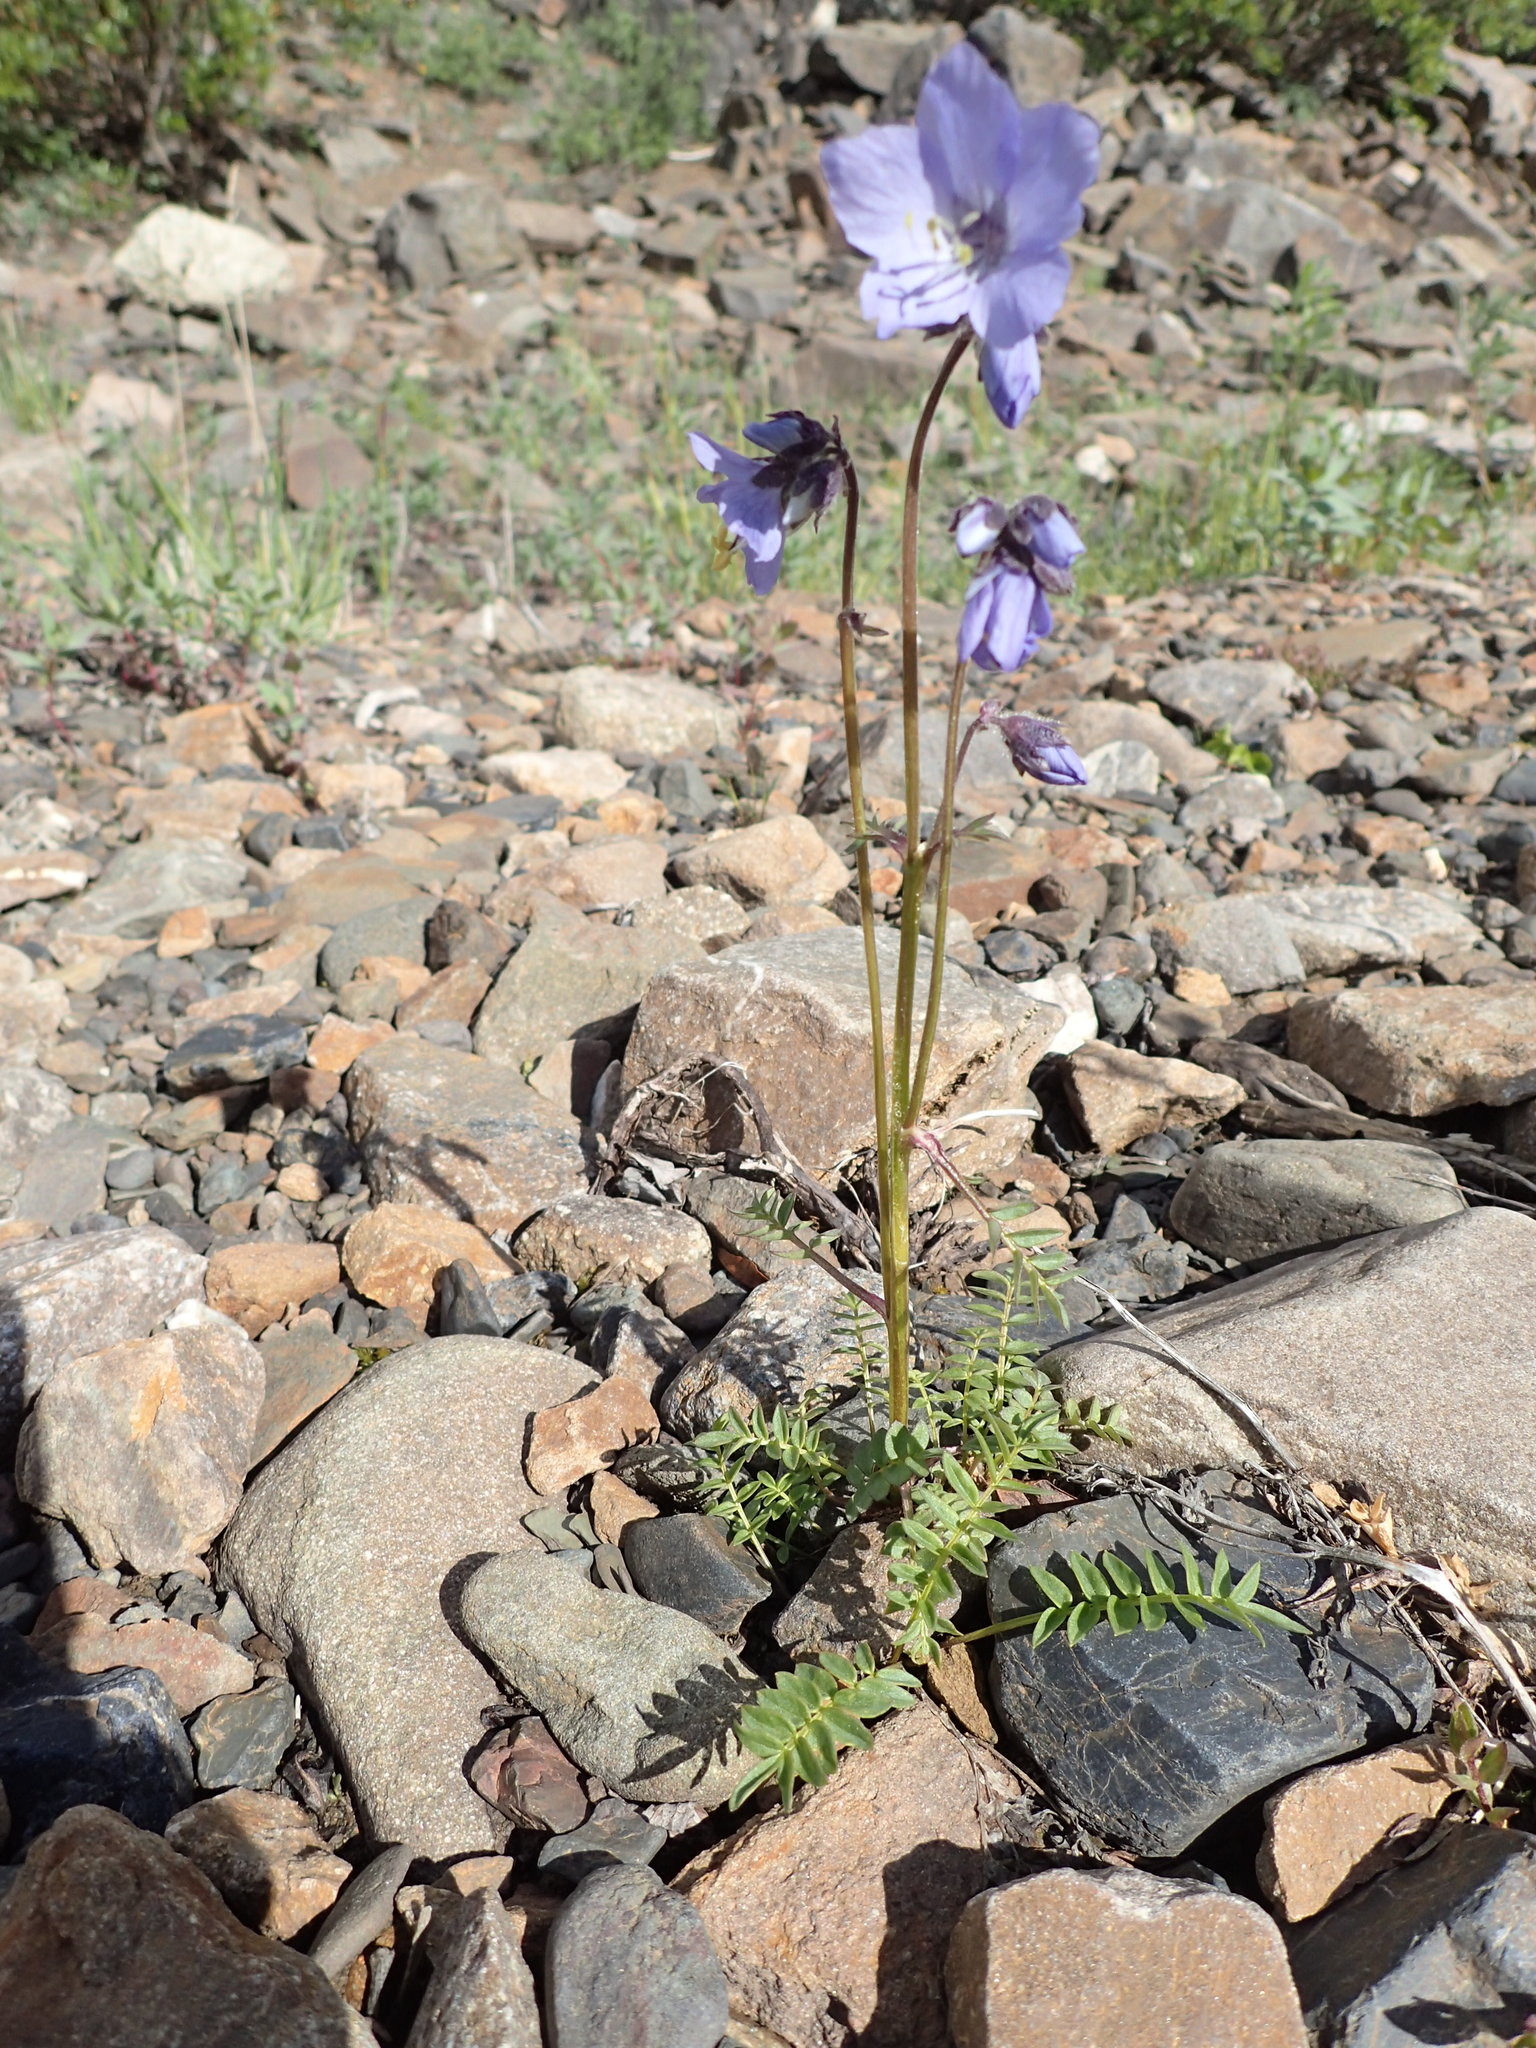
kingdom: Plantae
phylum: Tracheophyta
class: Magnoliopsida
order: Ericales
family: Polemoniaceae
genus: Polemonium
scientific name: Polemonium acutiflorum
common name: Tall jacob's-ladder
